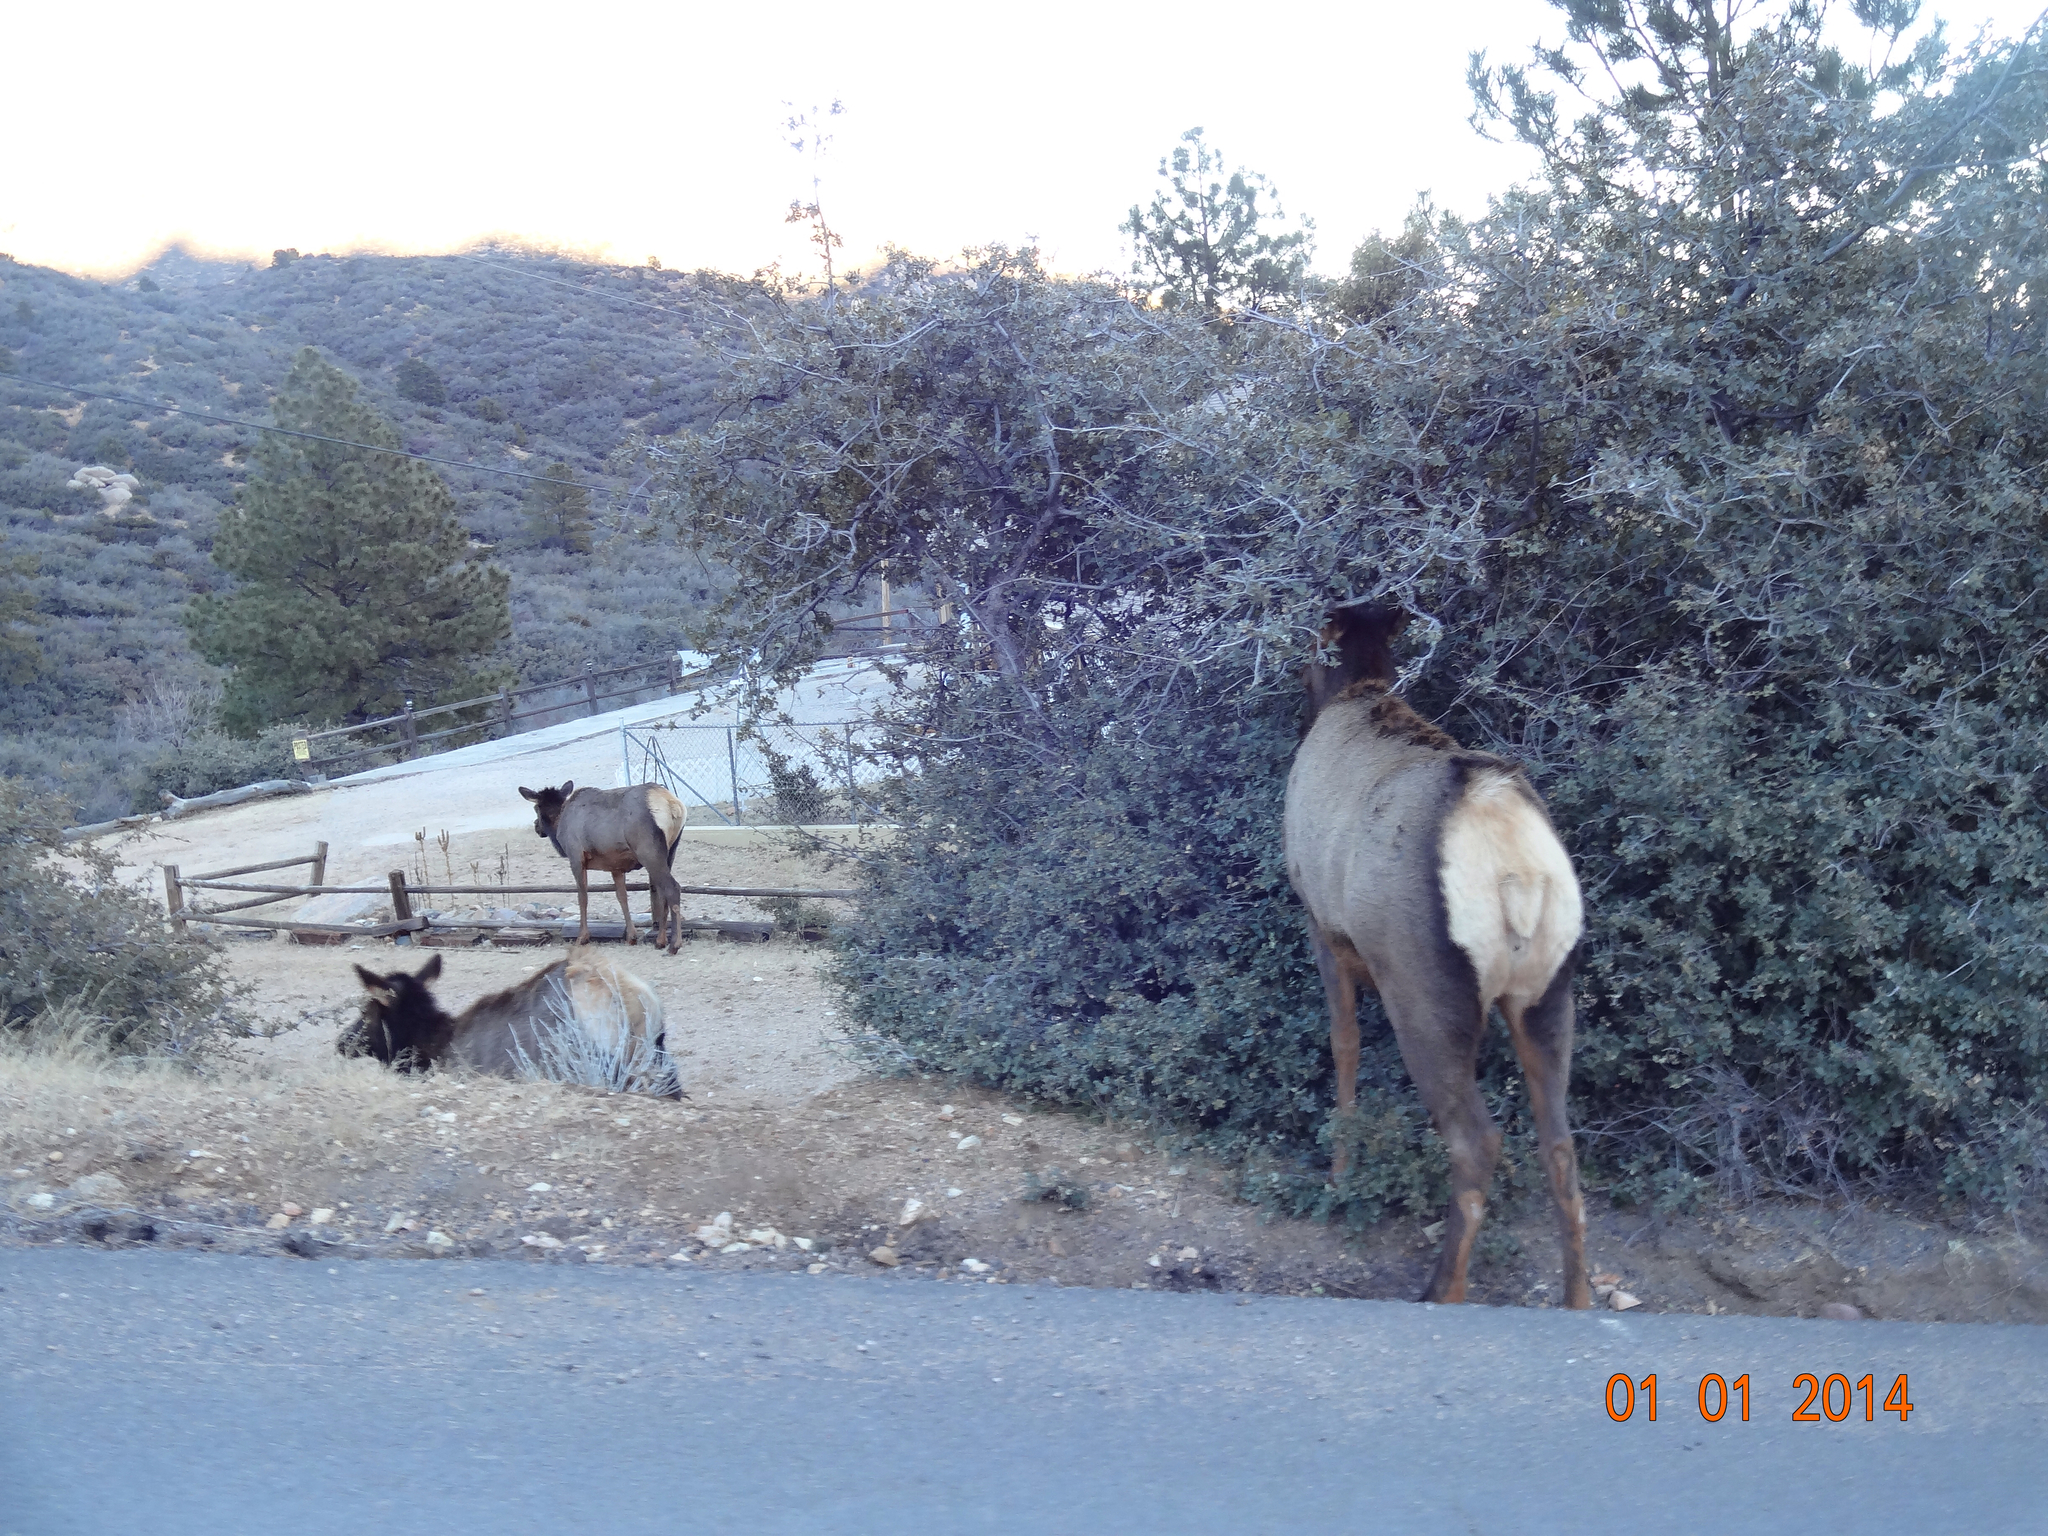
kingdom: Animalia
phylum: Chordata
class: Mammalia
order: Artiodactyla
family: Cervidae
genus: Cervus
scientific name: Cervus elaphus
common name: Red deer
